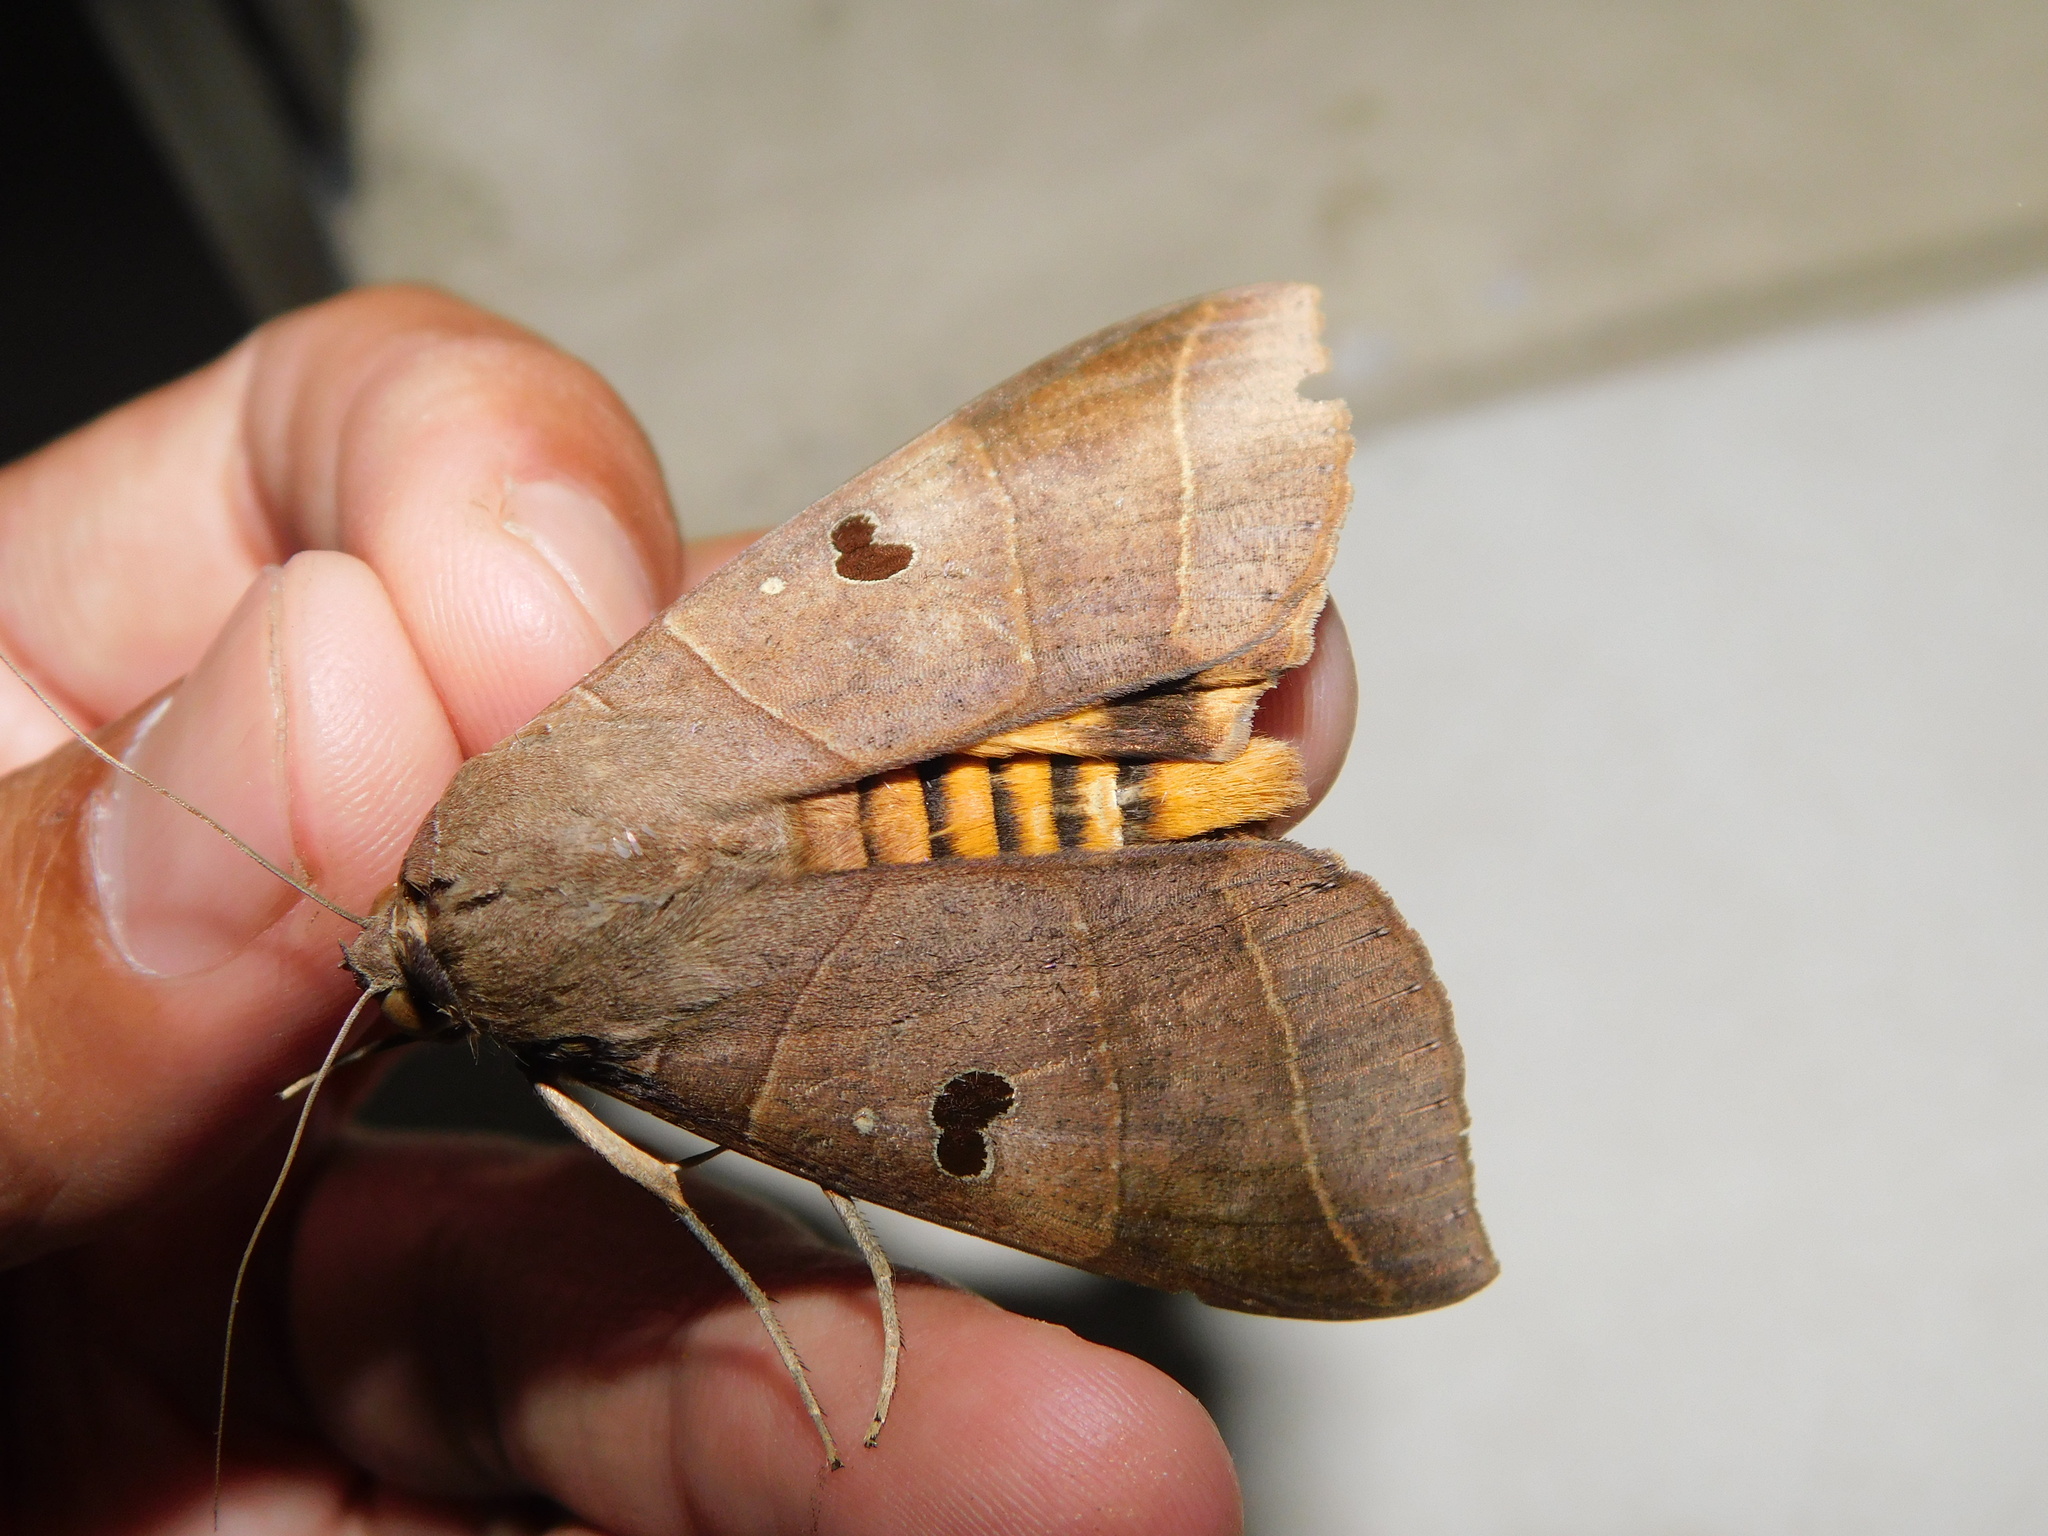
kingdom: Animalia
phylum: Arthropoda
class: Insecta
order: Lepidoptera
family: Erebidae
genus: Thyas
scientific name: Thyas coronata
